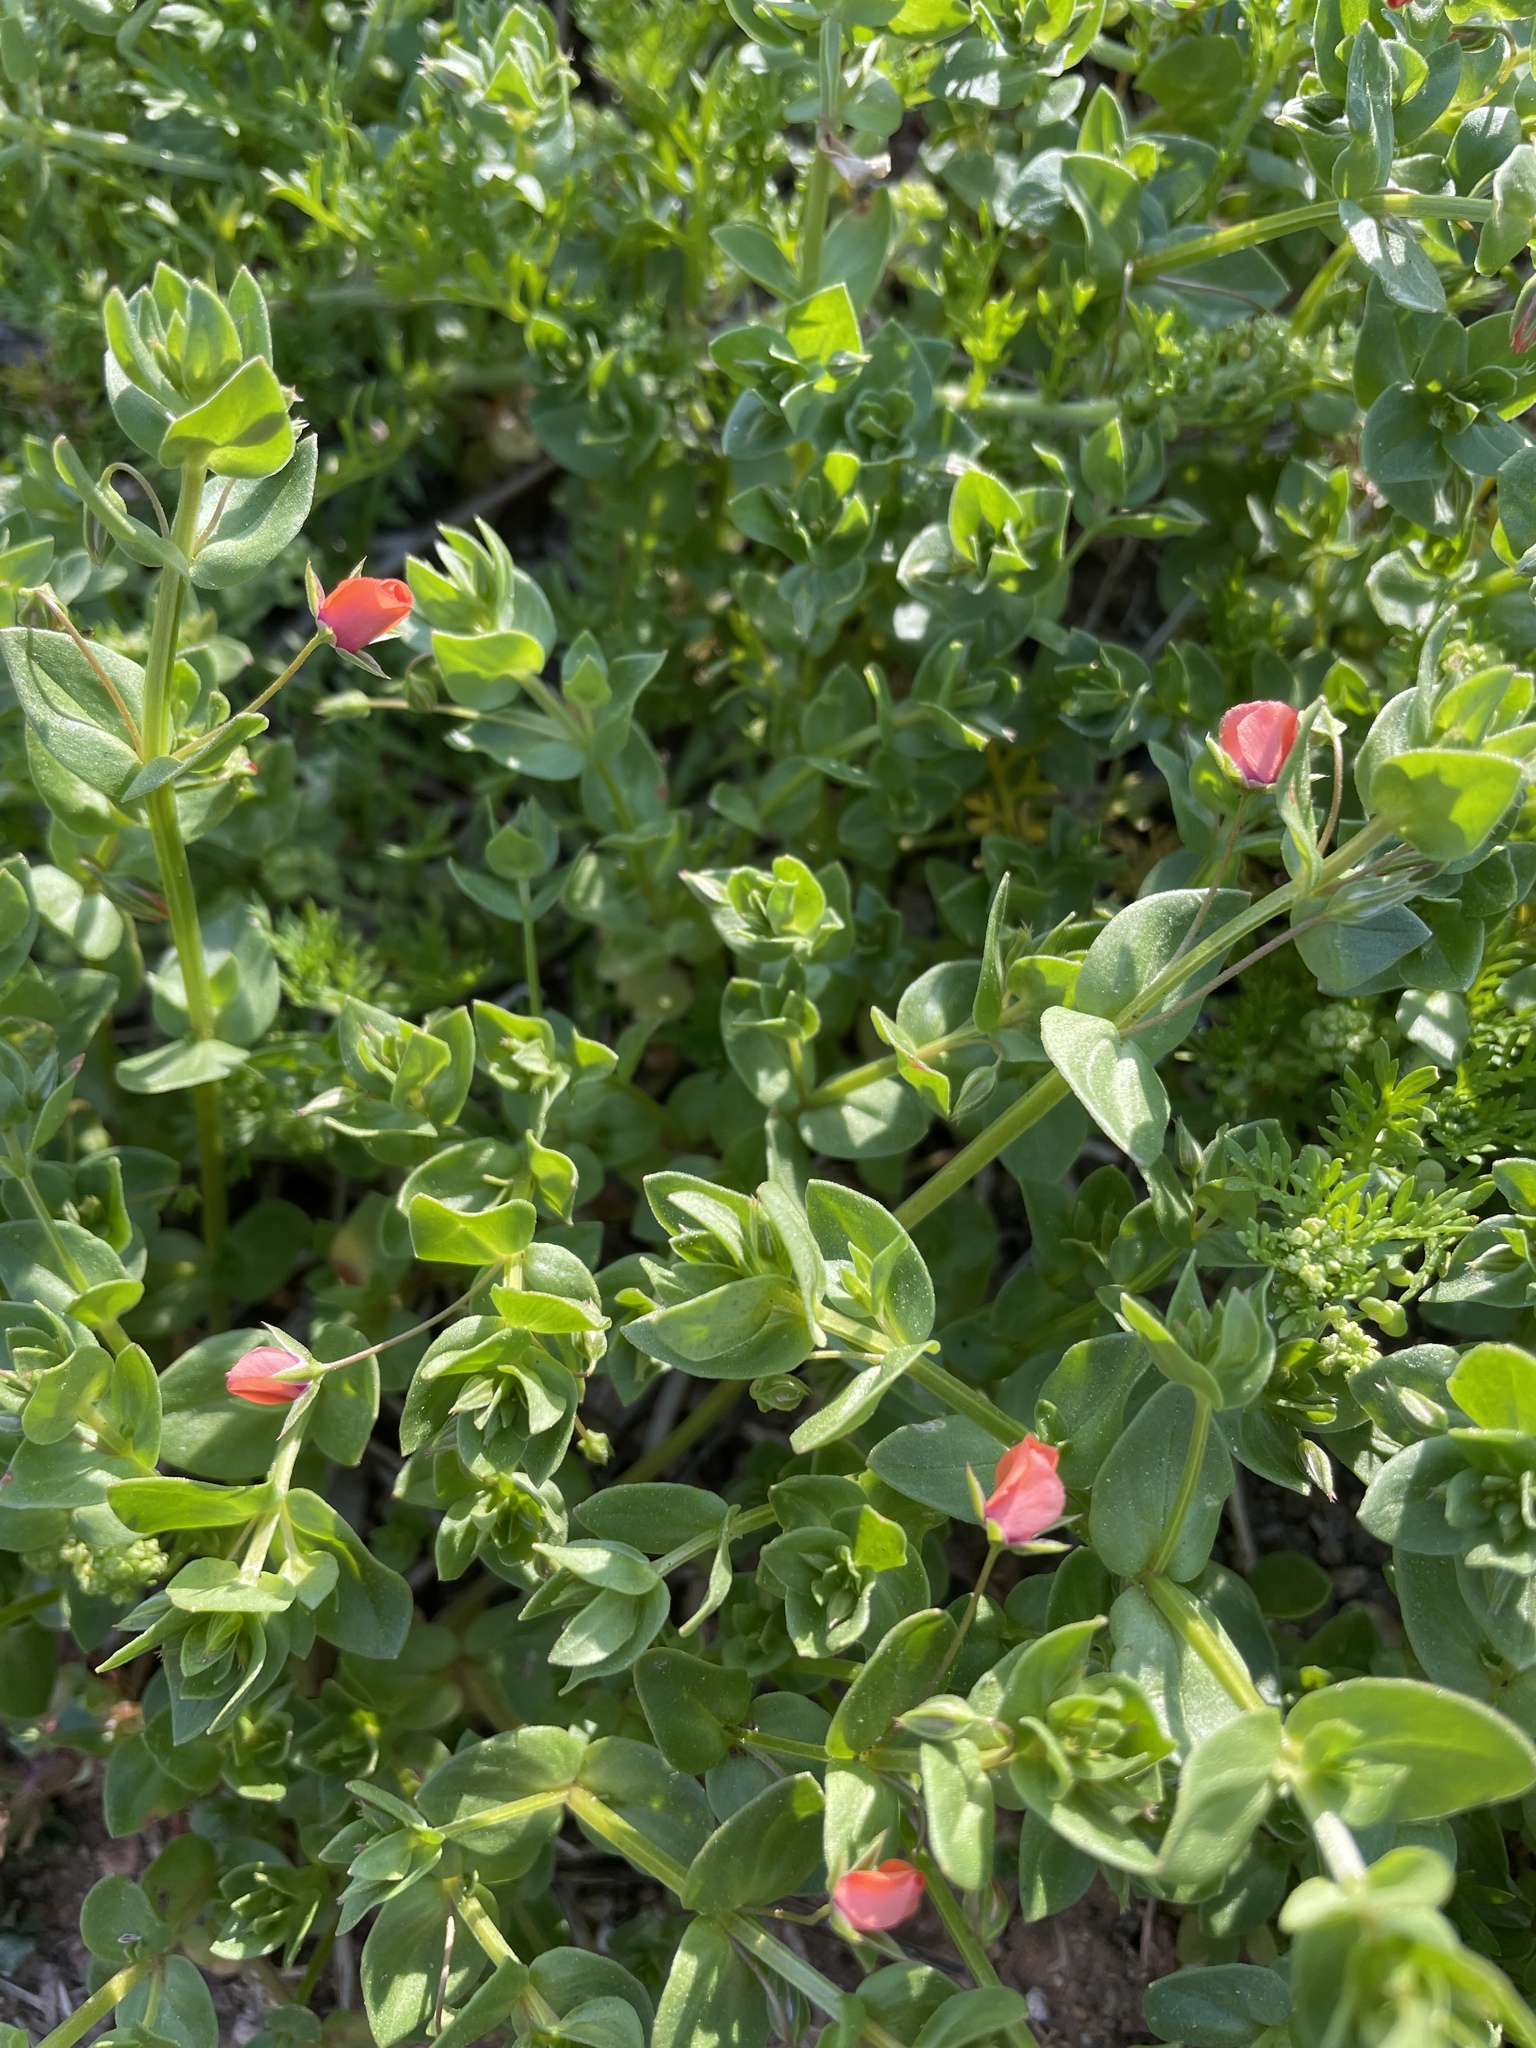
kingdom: Plantae
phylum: Tracheophyta
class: Magnoliopsida
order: Ericales
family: Primulaceae
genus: Lysimachia
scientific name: Lysimachia arvensis
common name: Scarlet pimpernel
